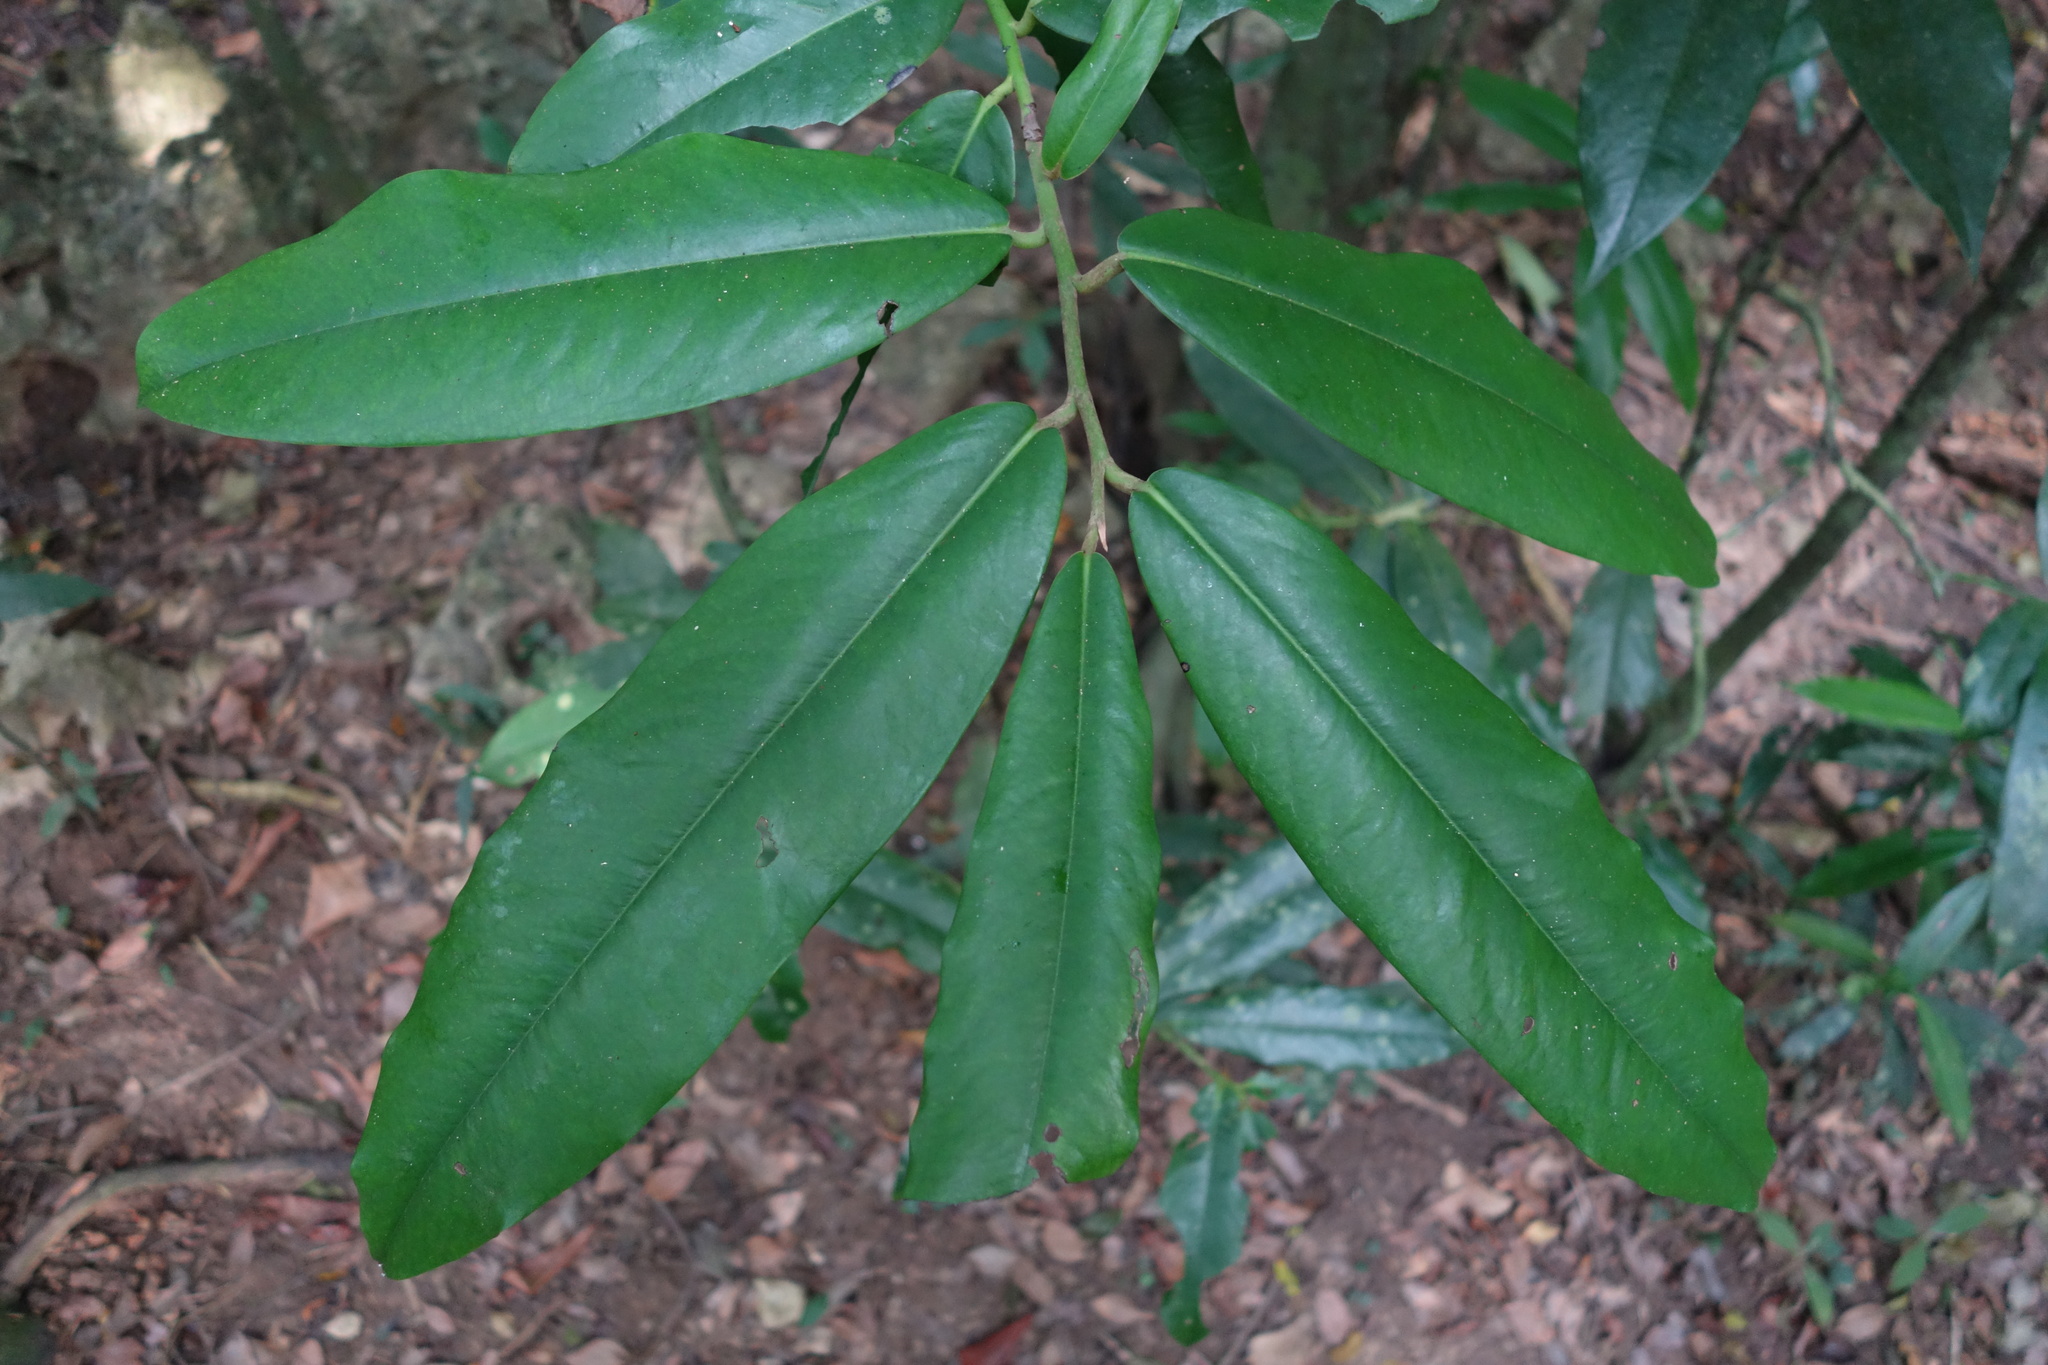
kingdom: Plantae
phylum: Tracheophyta
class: Magnoliopsida
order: Ericales
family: Ebenaceae
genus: Diospyros
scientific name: Diospyros blancoi
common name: Mabola-tree
